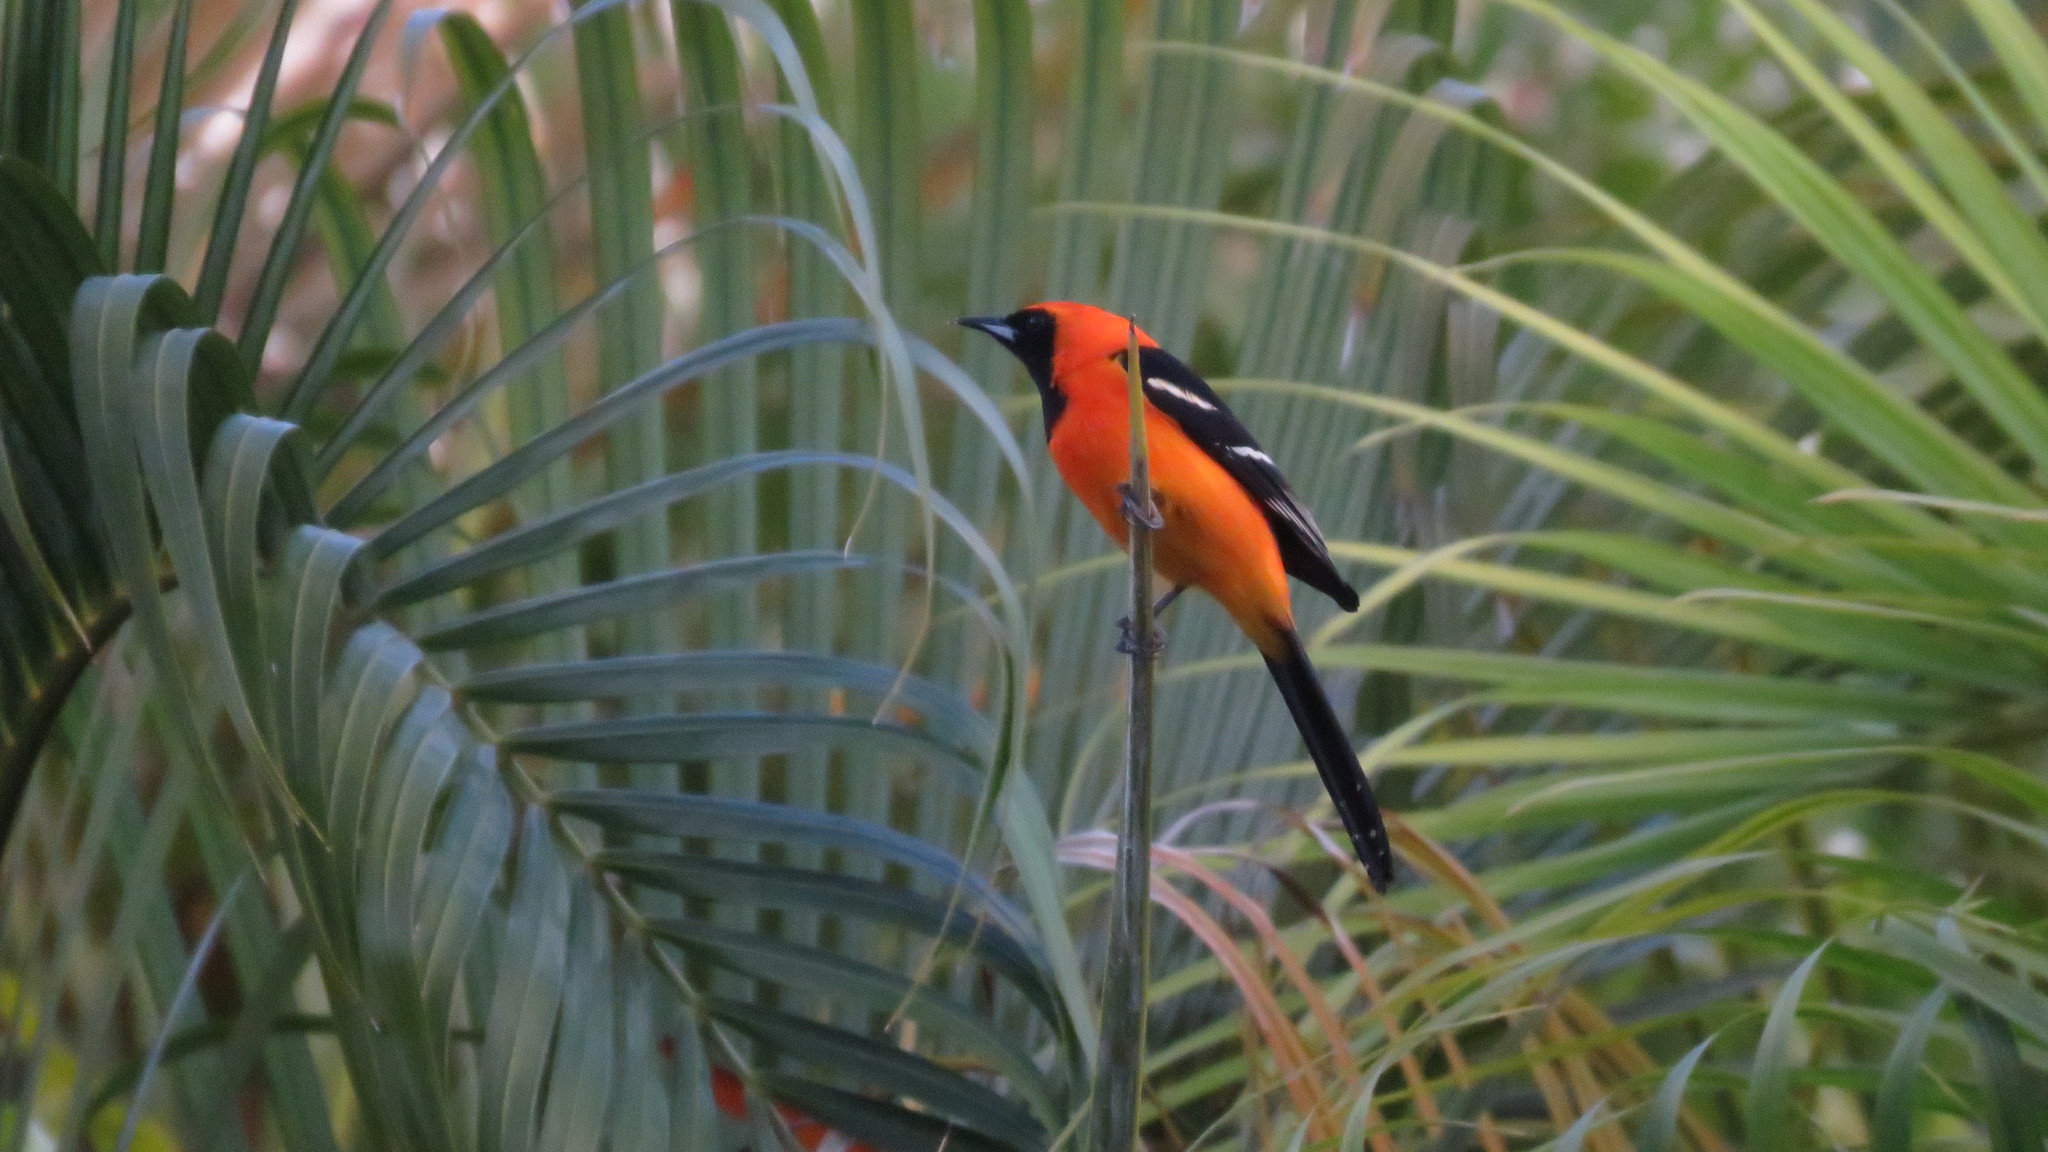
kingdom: Animalia
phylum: Chordata
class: Aves
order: Passeriformes
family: Icteridae
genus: Icterus
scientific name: Icterus cucullatus
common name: Hooded oriole
